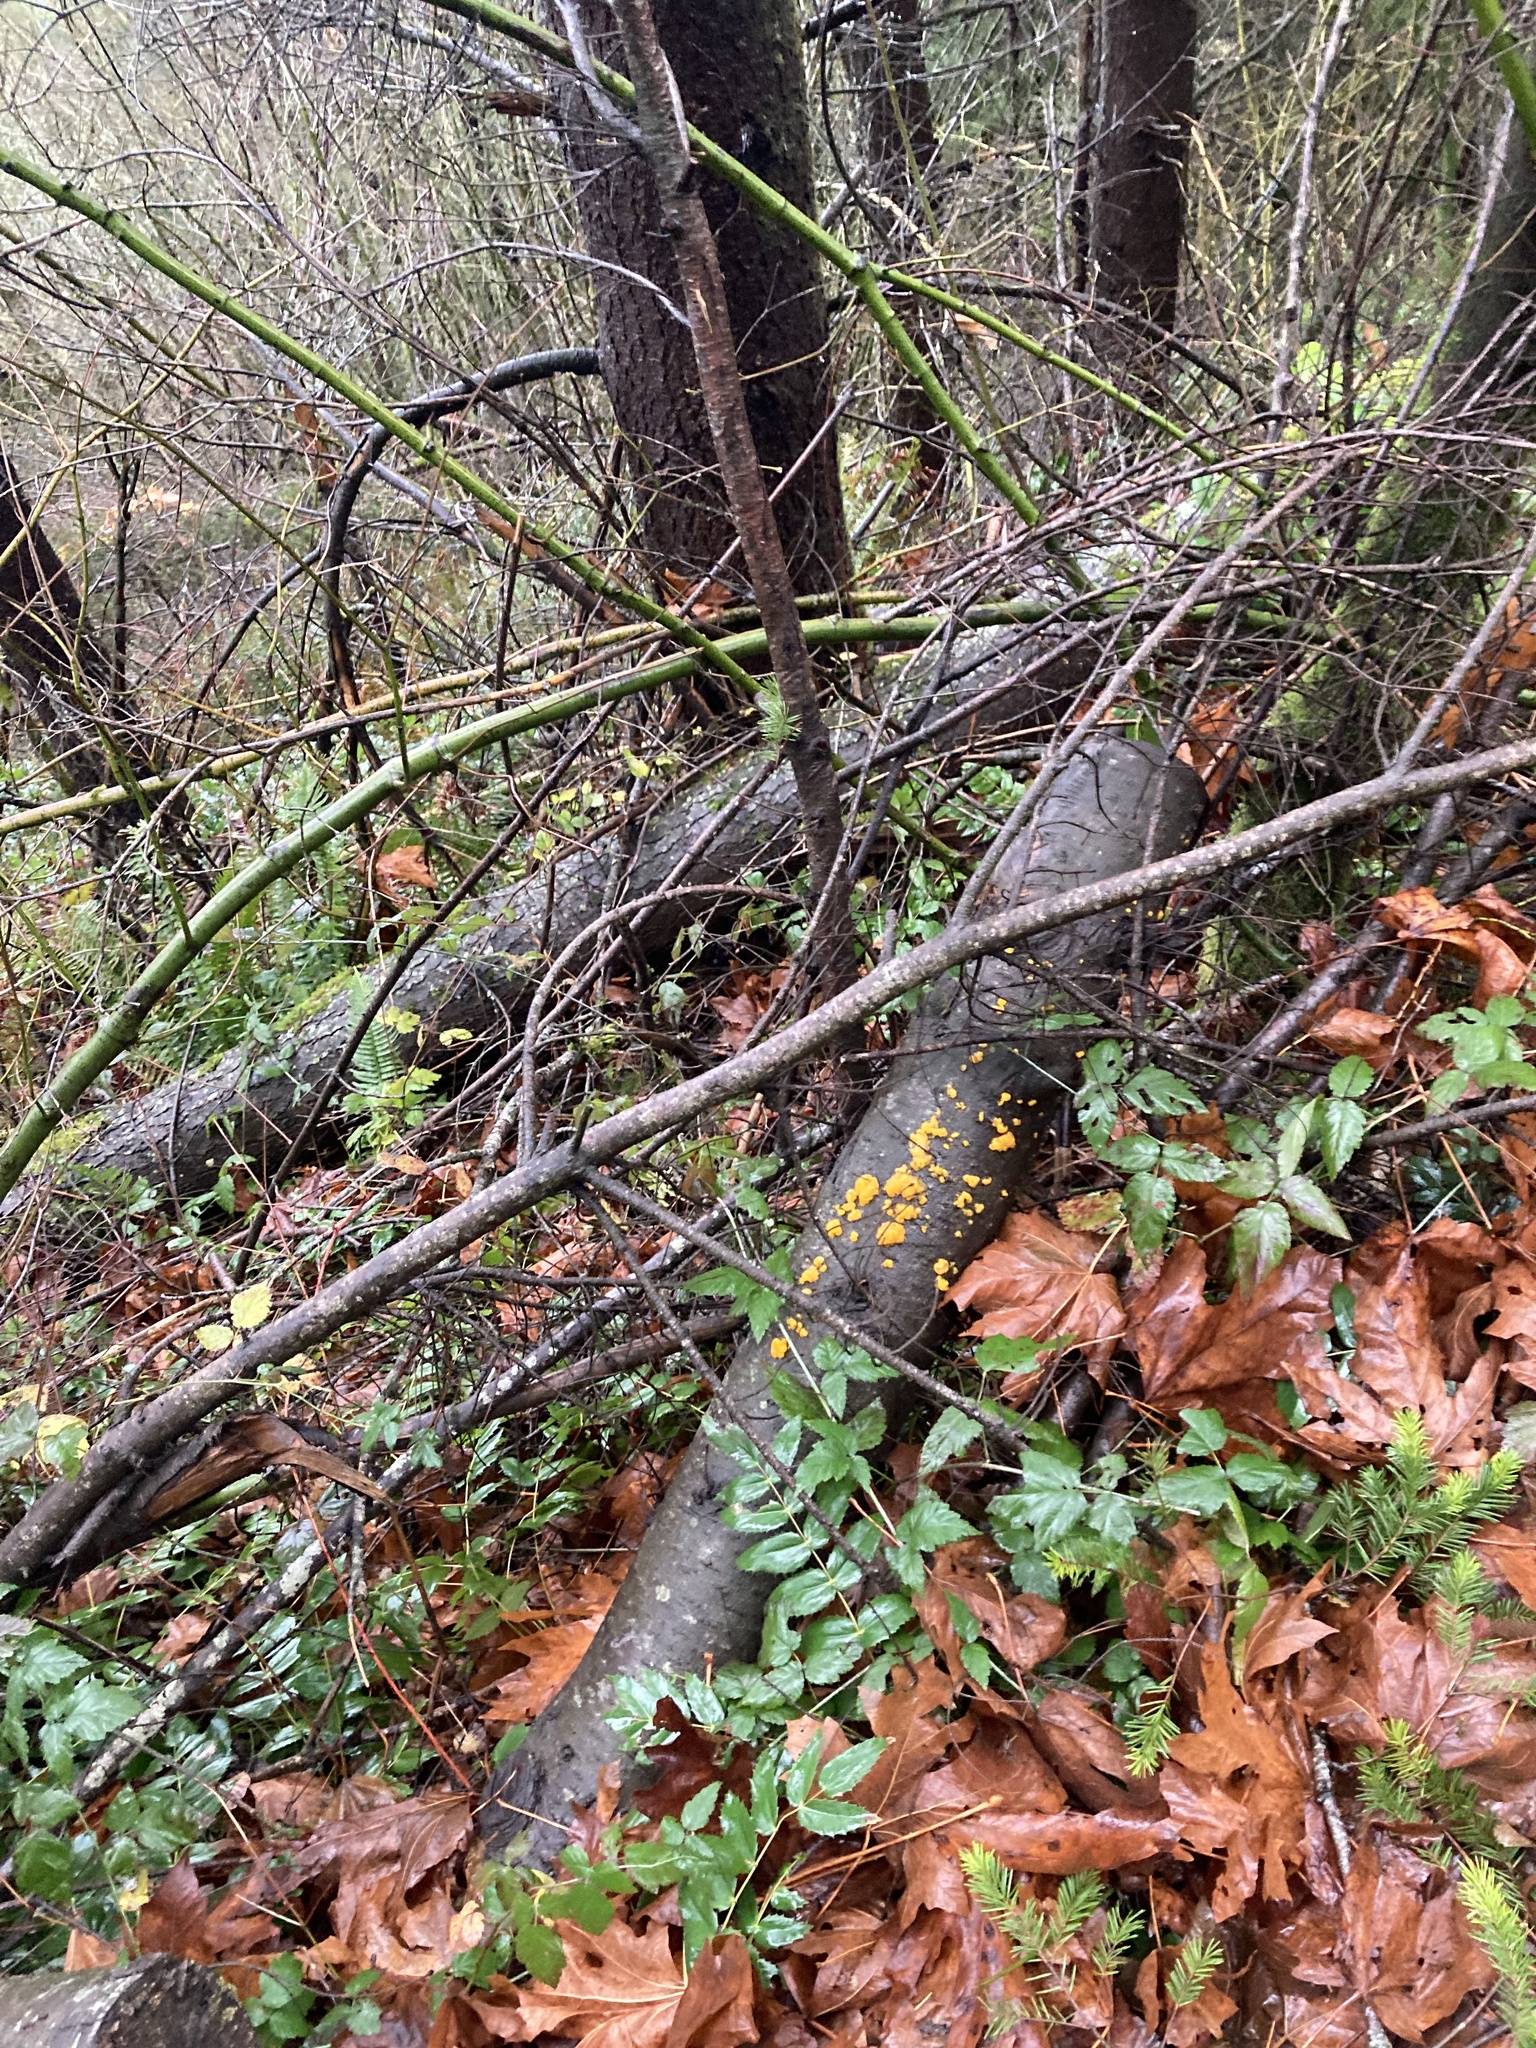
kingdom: Fungi
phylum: Basidiomycota
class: Dacrymycetes
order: Dacrymycetales
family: Dacrymycetaceae
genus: Dacrymyces
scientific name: Dacrymyces chrysospermus
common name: Orange jelly spot
